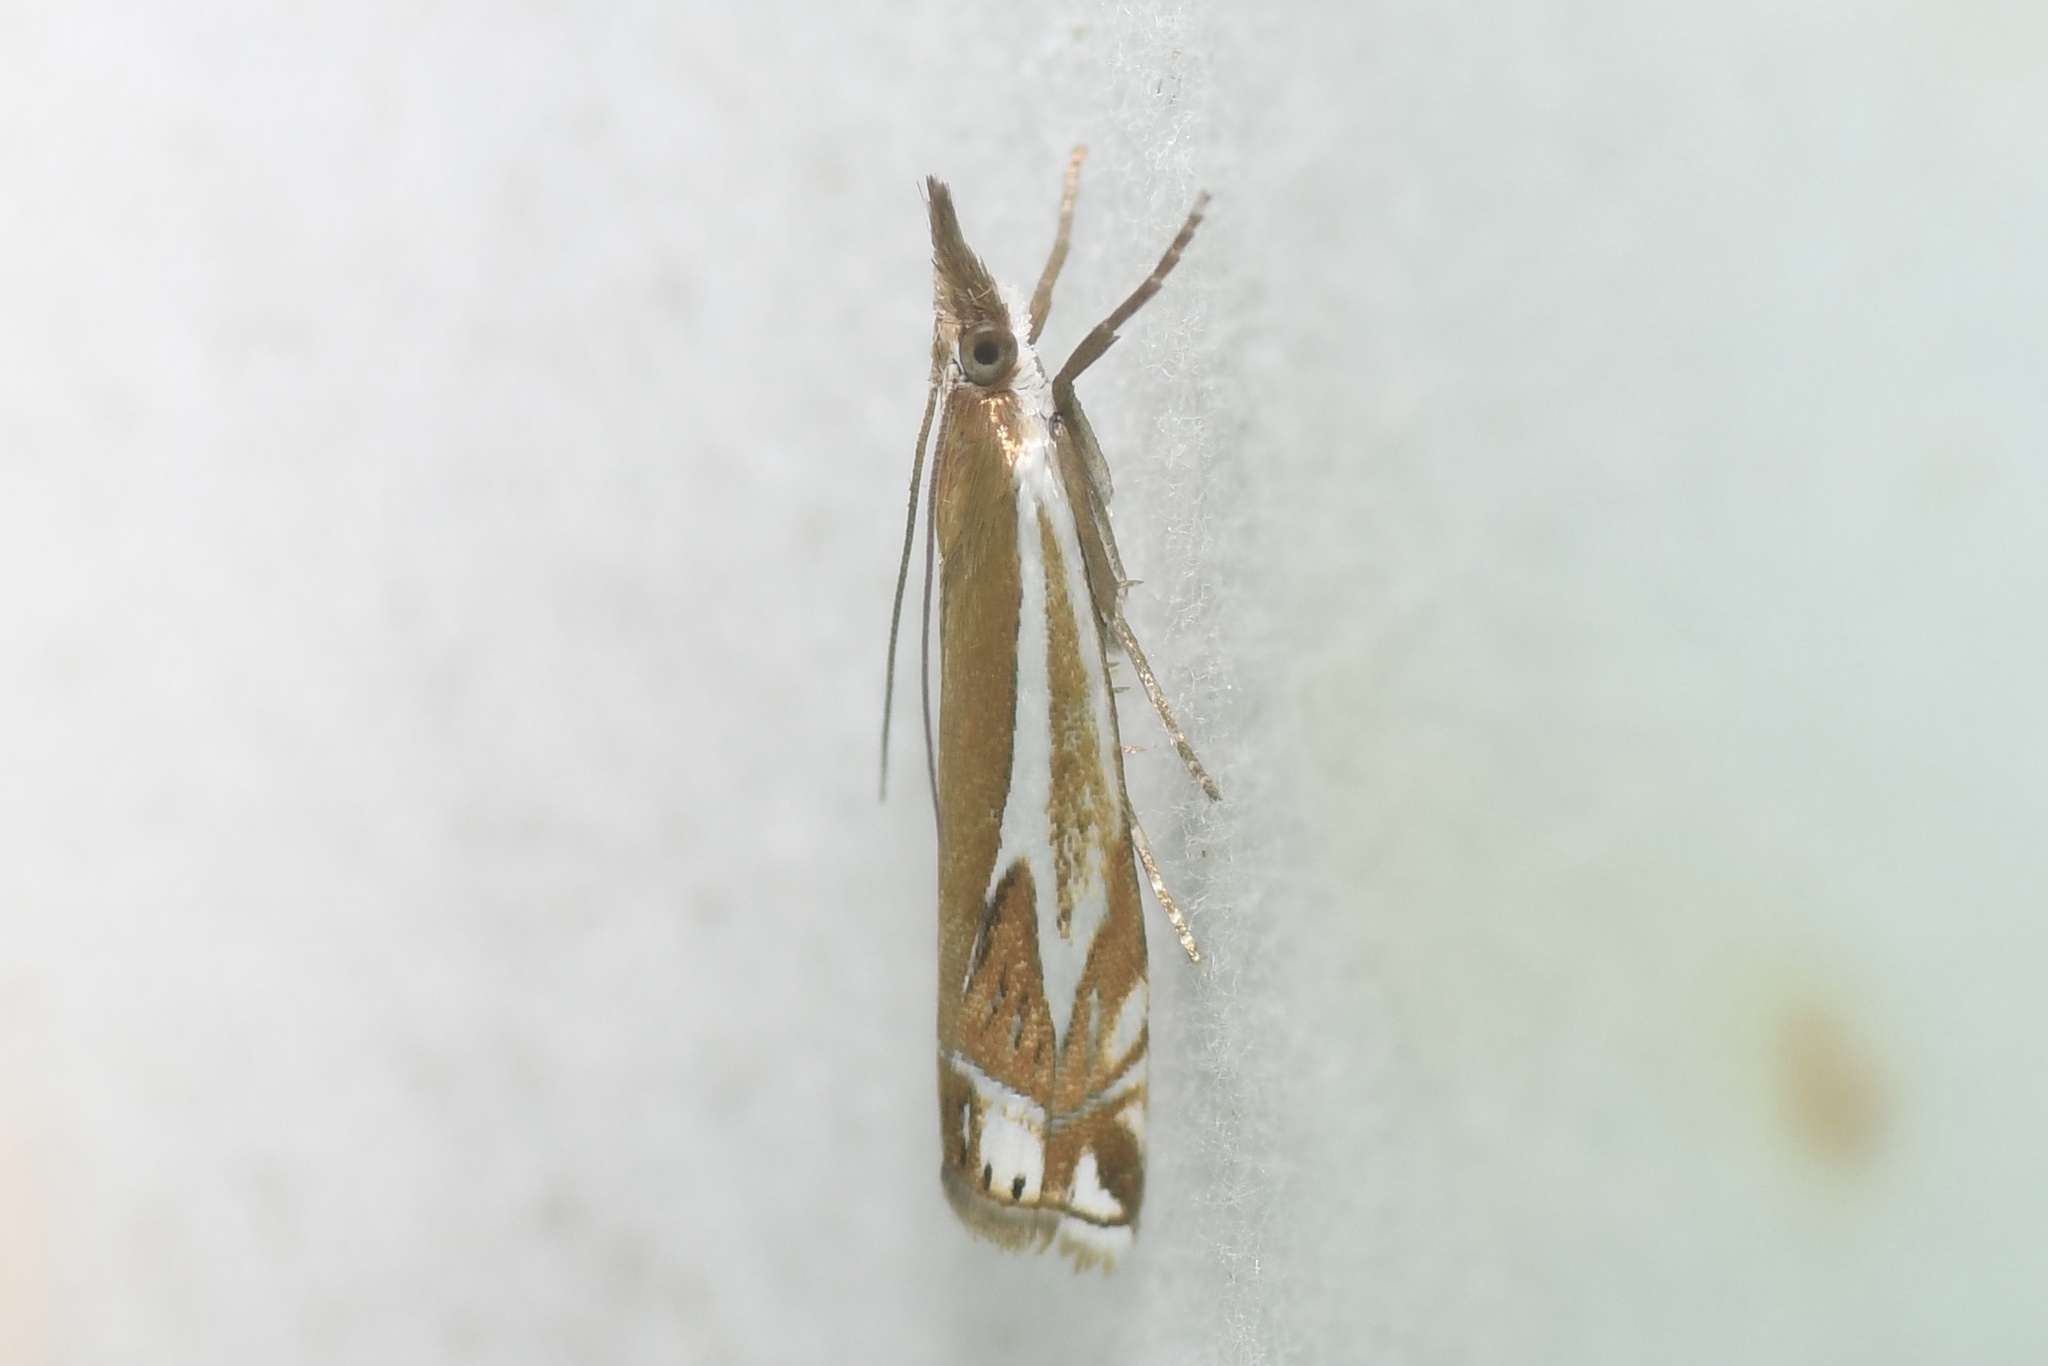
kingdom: Animalia
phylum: Arthropoda
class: Insecta
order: Lepidoptera
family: Crambidae
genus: Crambus
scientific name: Crambus bidens
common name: Forked grass-veneer
